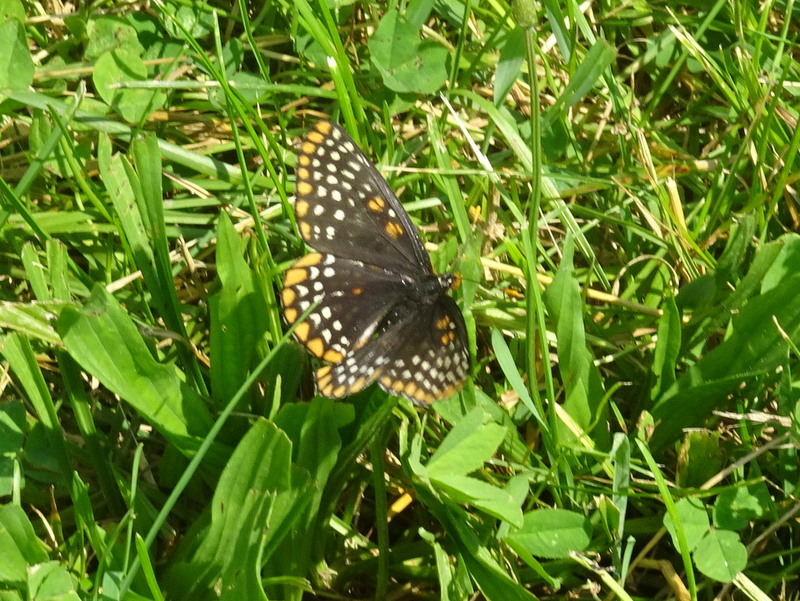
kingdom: Animalia
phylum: Arthropoda
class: Insecta
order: Lepidoptera
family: Nymphalidae
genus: Euphydryas
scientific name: Euphydryas phaeton
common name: Baltimore checkerspot
